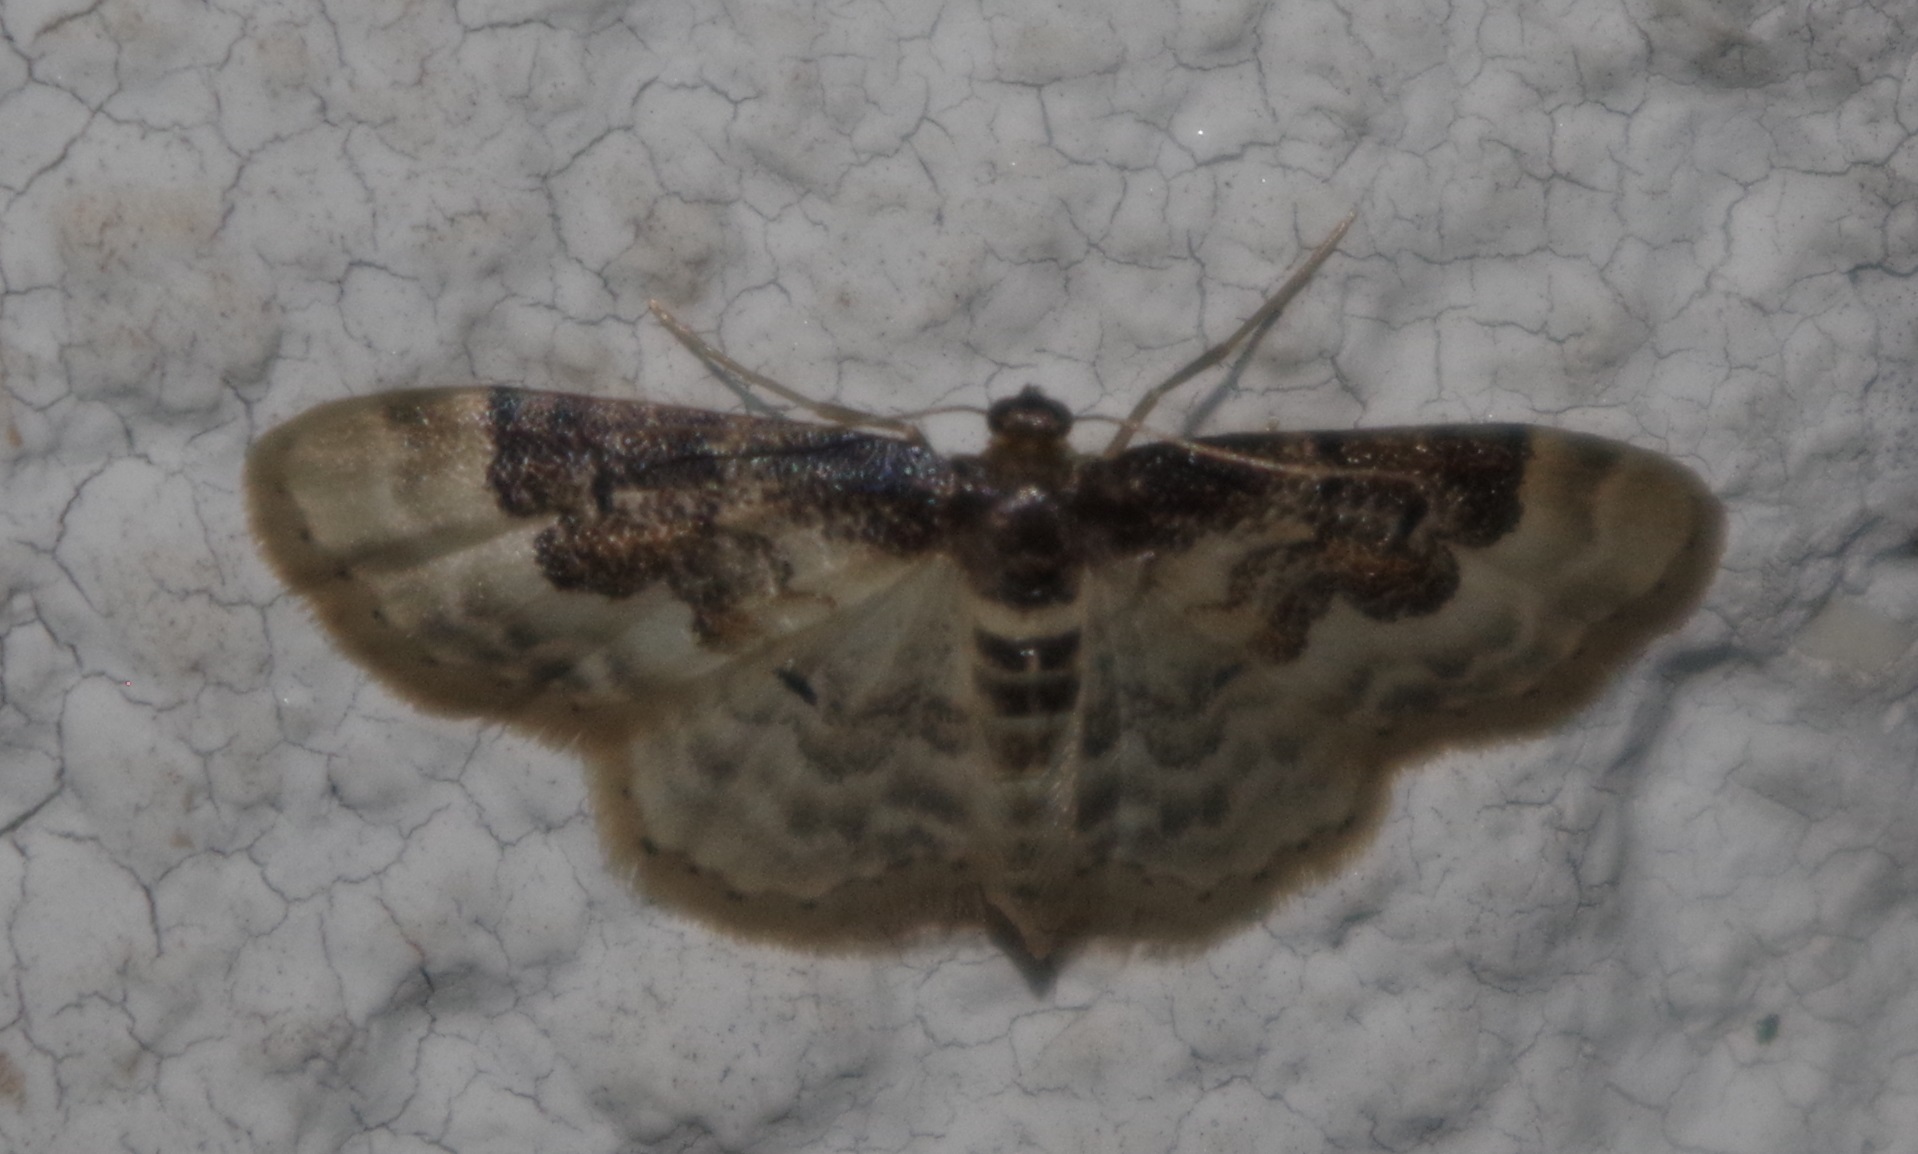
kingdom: Animalia
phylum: Arthropoda
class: Insecta
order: Lepidoptera
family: Geometridae
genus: Idaea
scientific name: Idaea rusticata
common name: Least carpet
